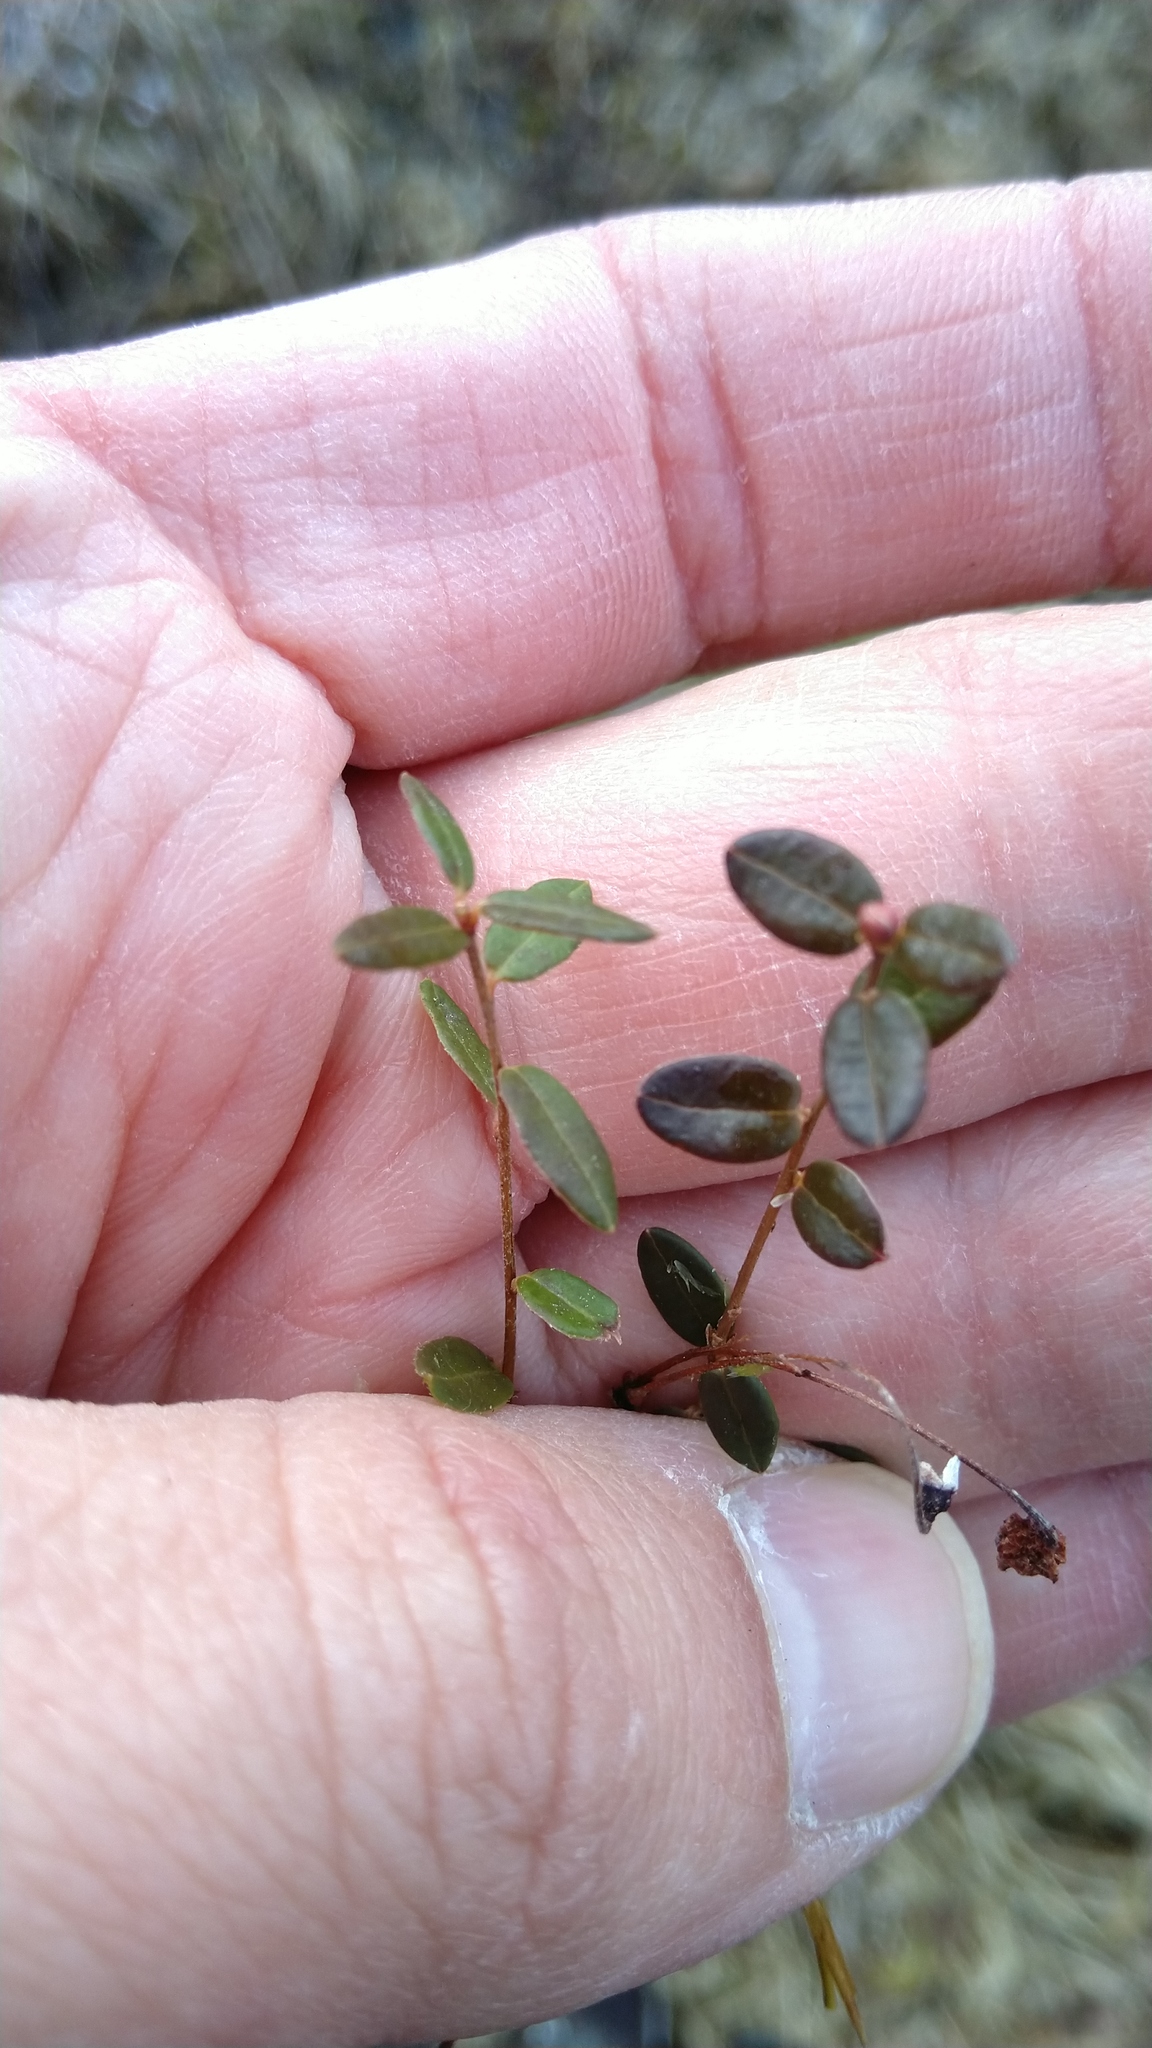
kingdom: Plantae
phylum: Tracheophyta
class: Magnoliopsida
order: Ericales
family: Ericaceae
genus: Vaccinium
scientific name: Vaccinium oxycoccos
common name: Cranberry
